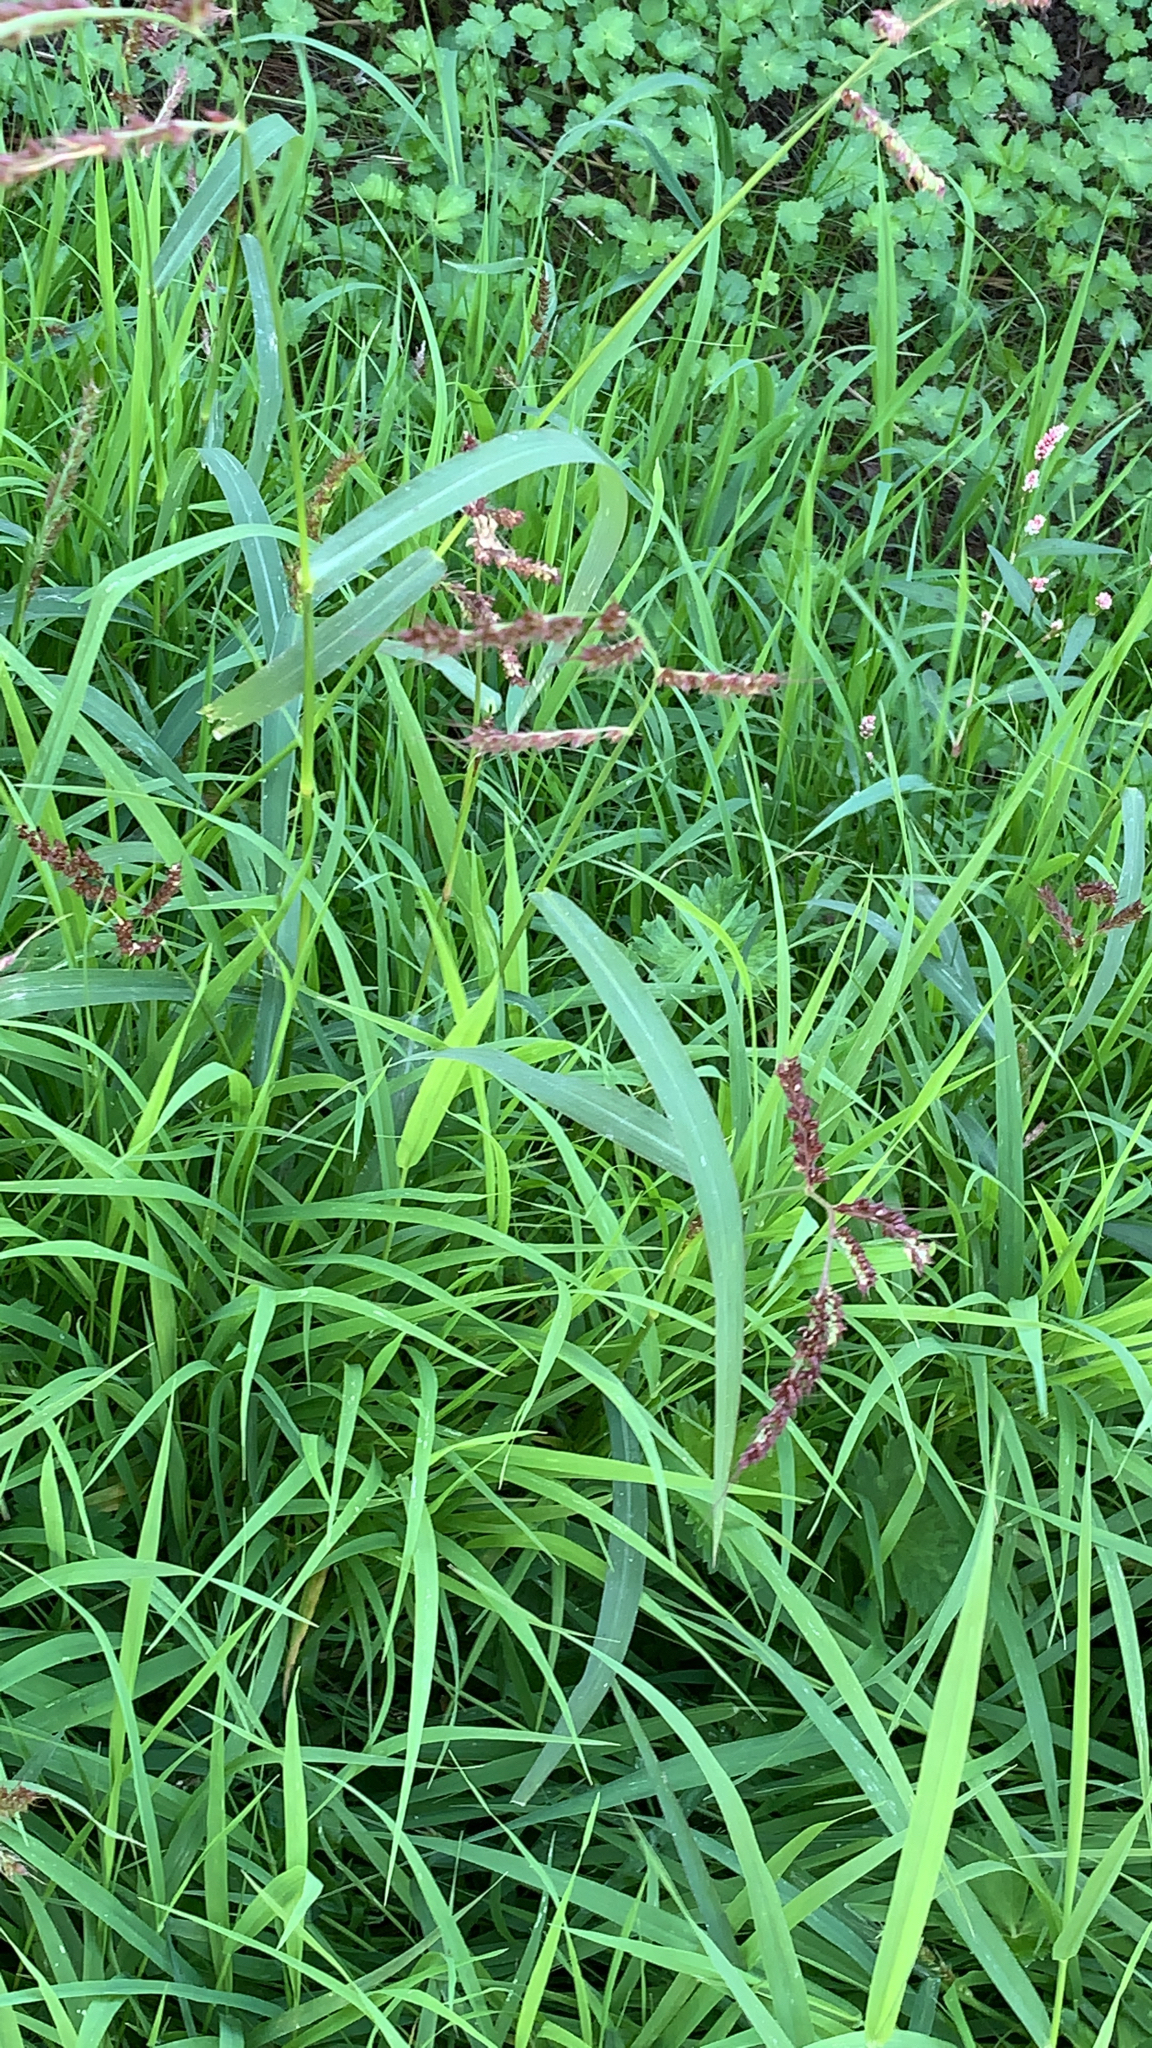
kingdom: Plantae
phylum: Tracheophyta
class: Liliopsida
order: Poales
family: Poaceae
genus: Echinochloa
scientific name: Echinochloa crus-galli
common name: Cockspur
